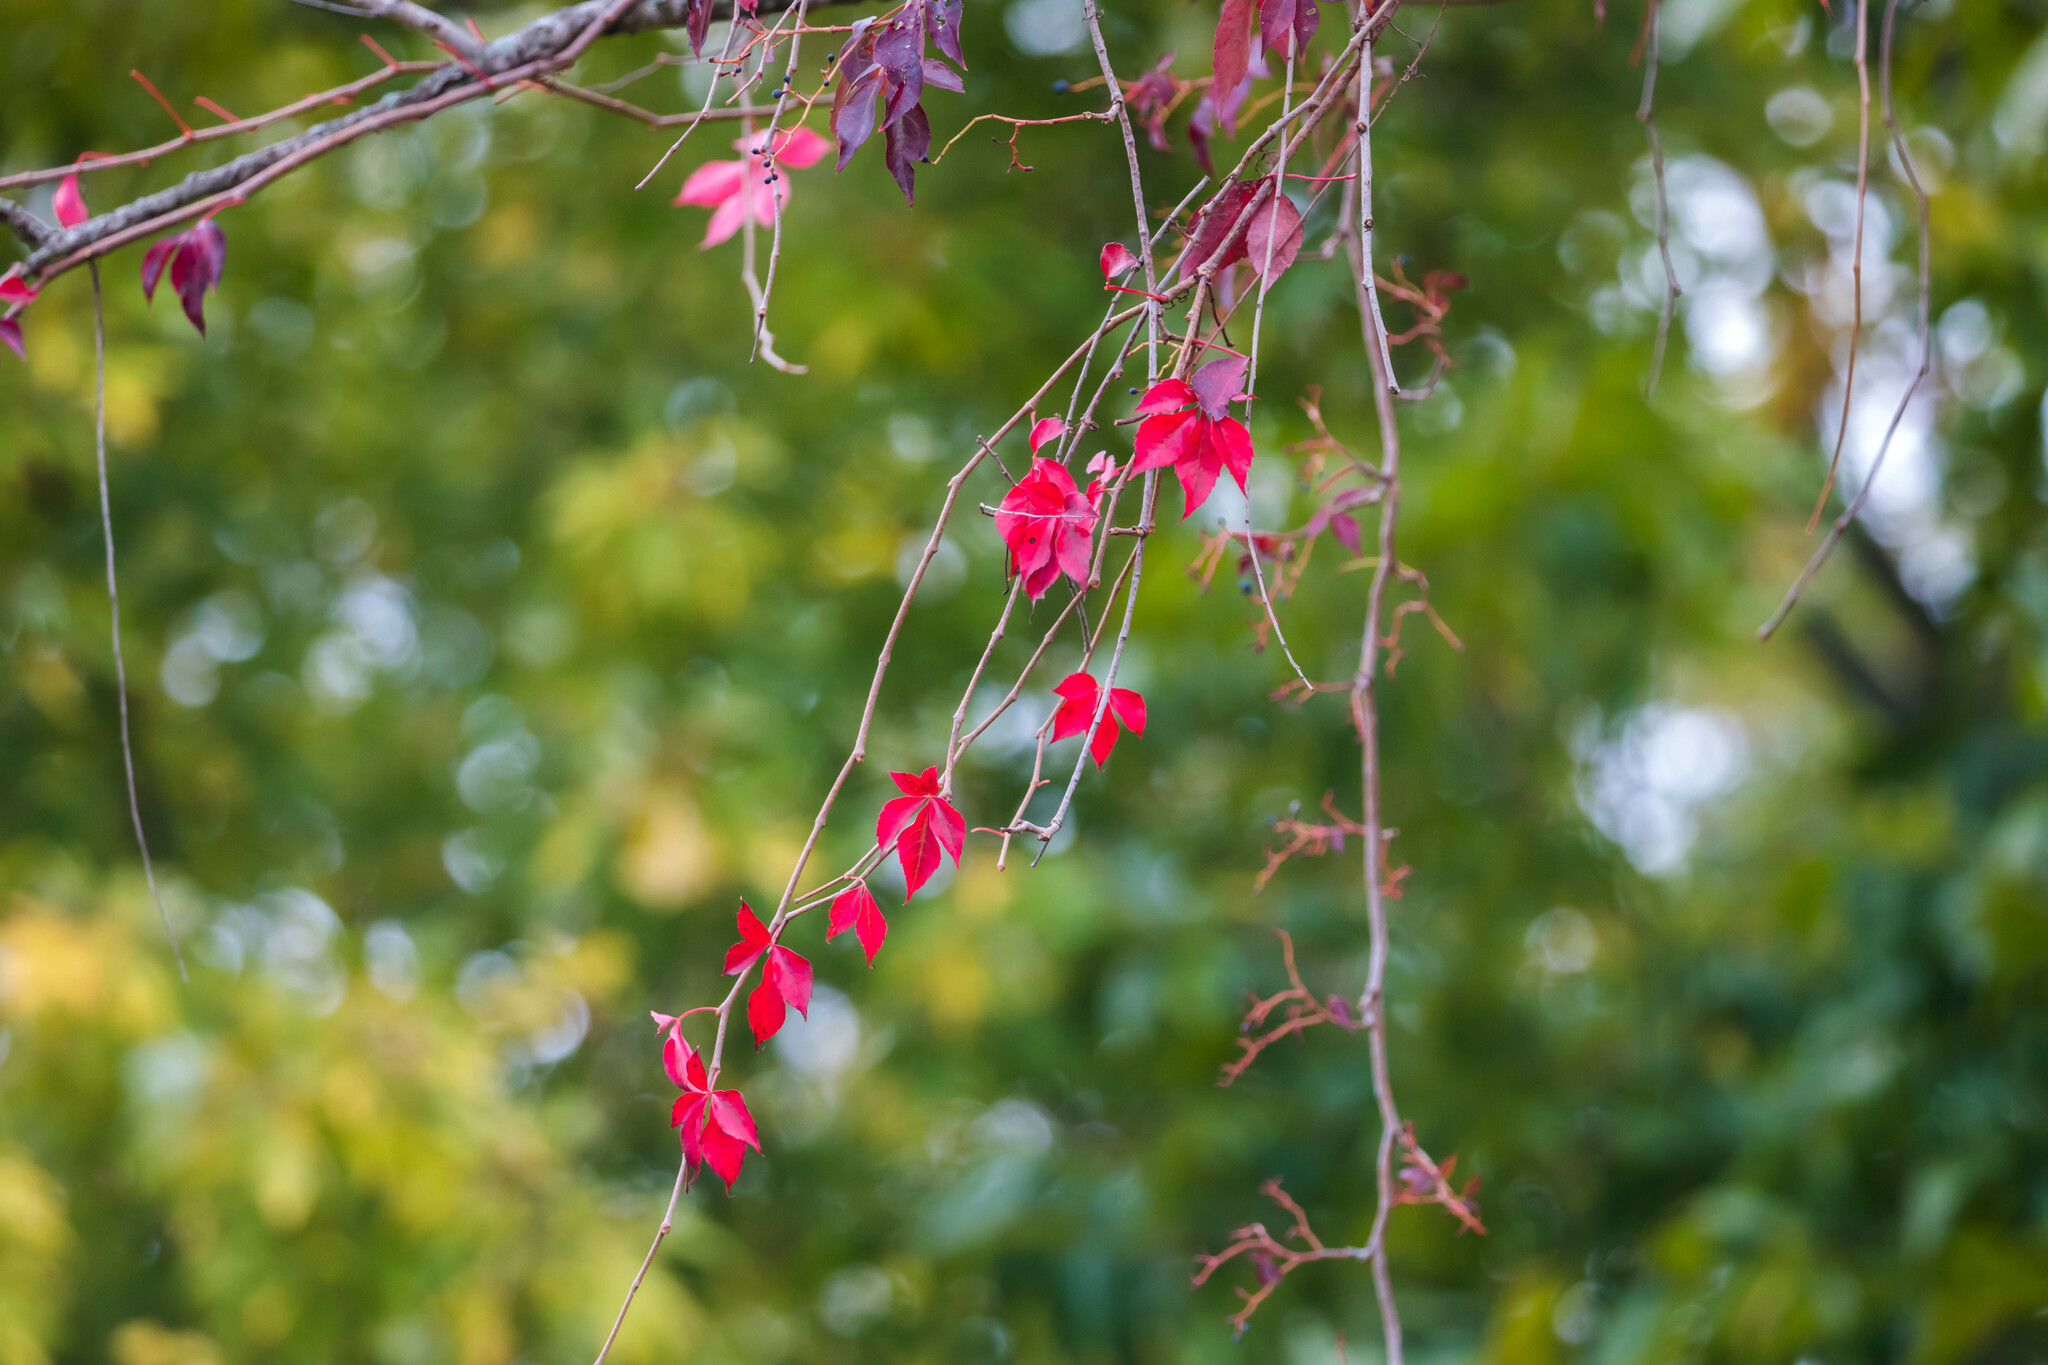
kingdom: Plantae
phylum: Tracheophyta
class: Magnoliopsida
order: Vitales
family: Vitaceae
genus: Parthenocissus
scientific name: Parthenocissus quinquefolia
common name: Virginia-creeper
